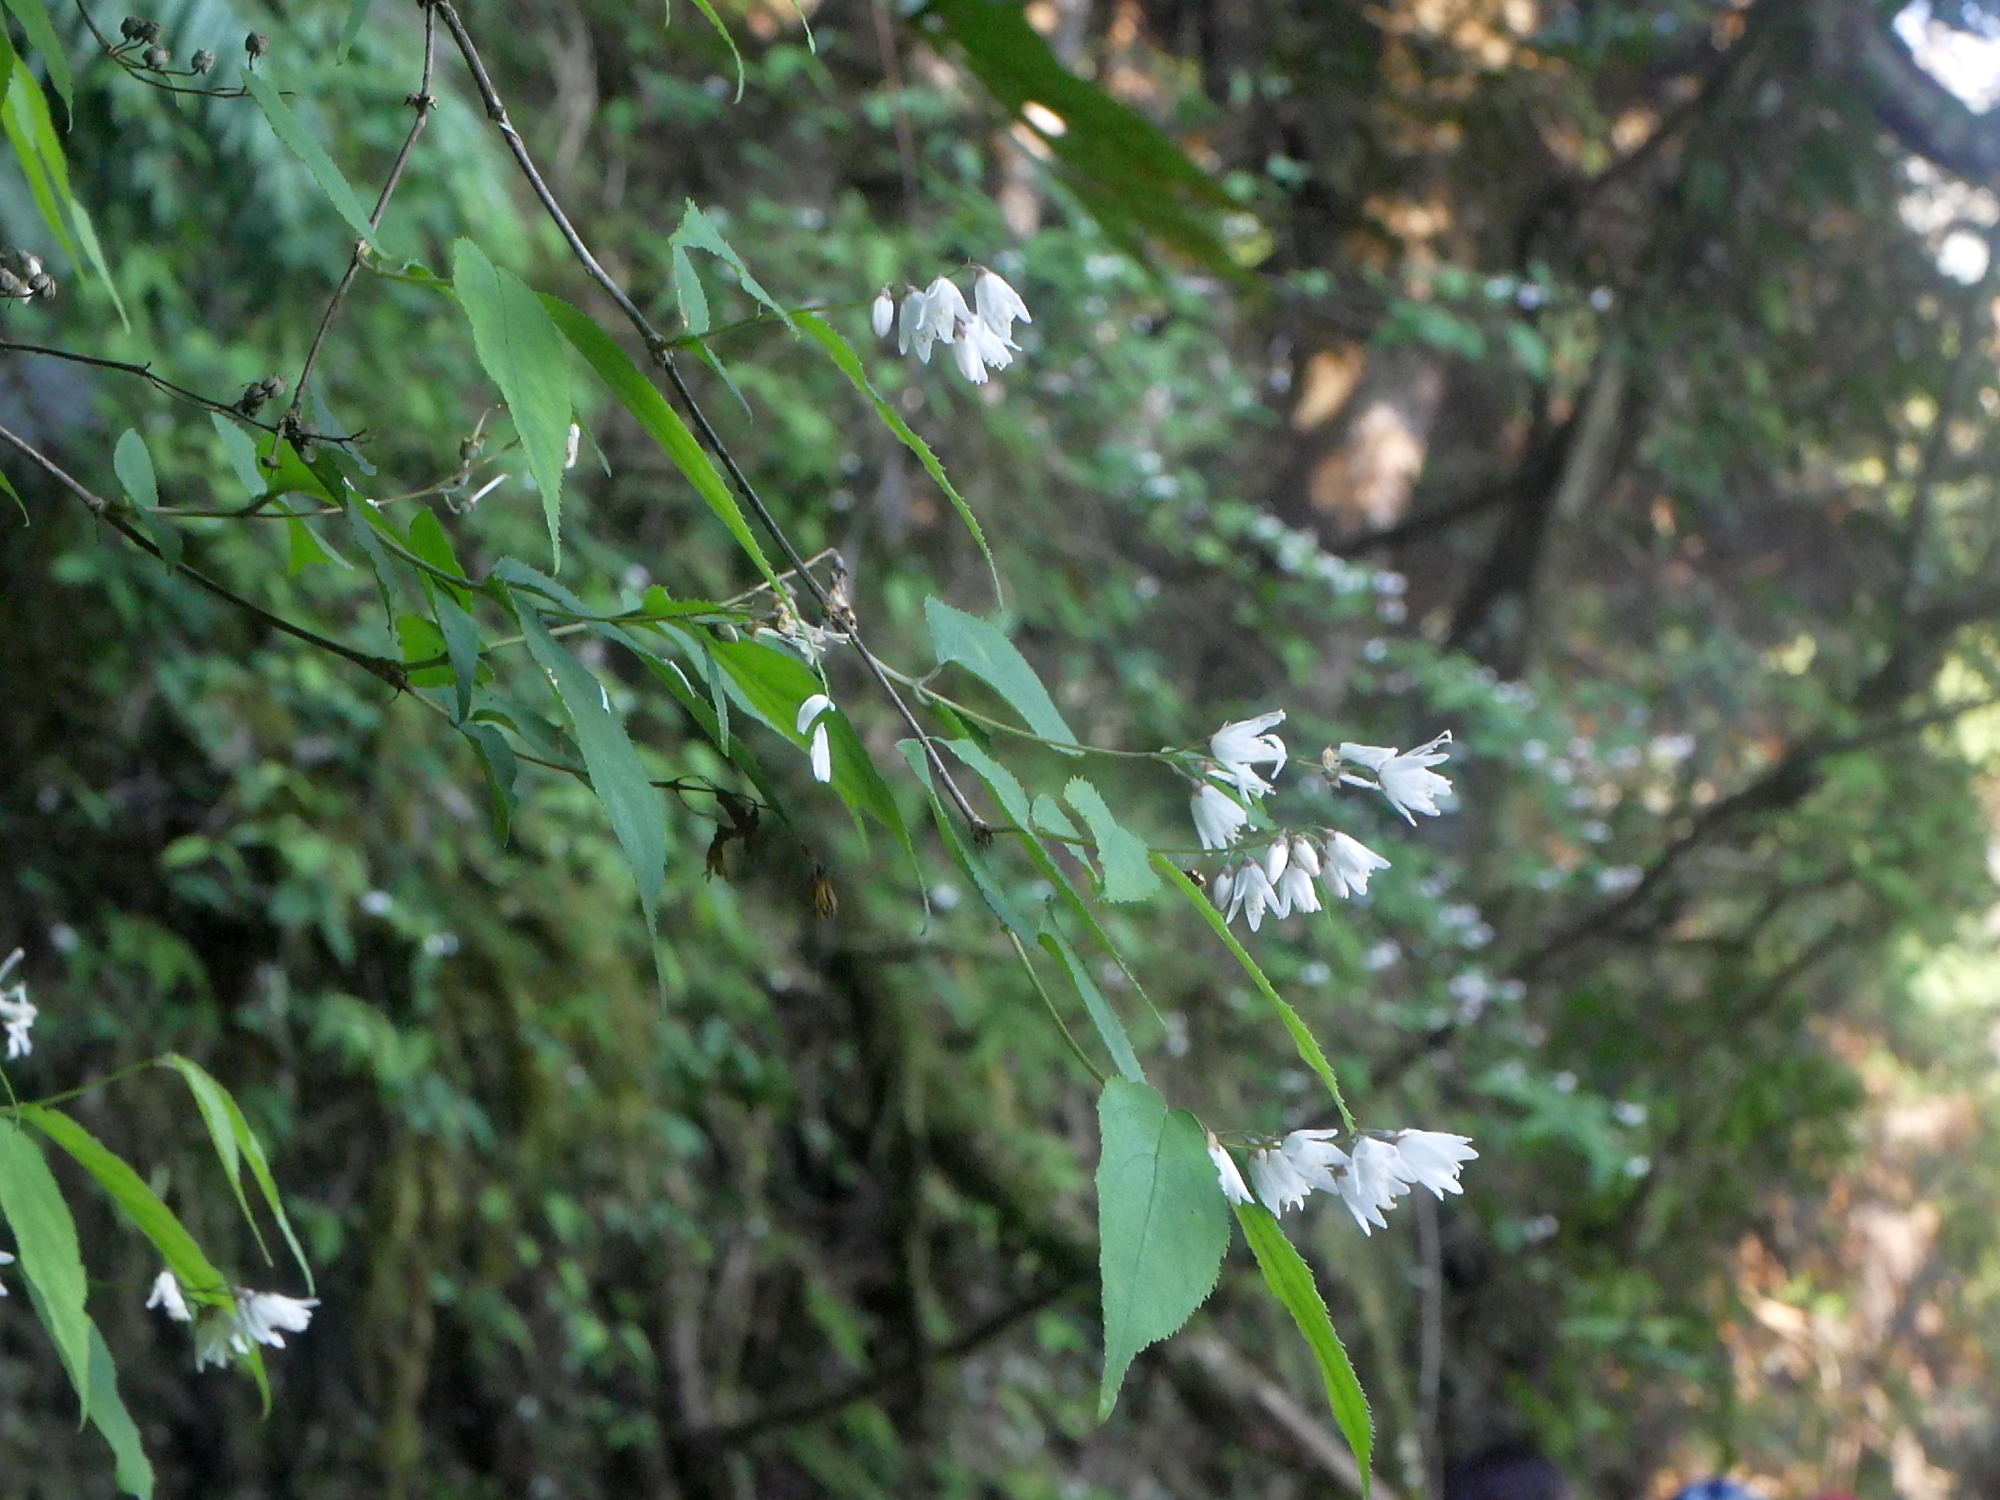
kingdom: Plantae
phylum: Tracheophyta
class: Magnoliopsida
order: Cornales
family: Hydrangeaceae
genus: Deutzia
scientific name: Deutzia taiwanensis
